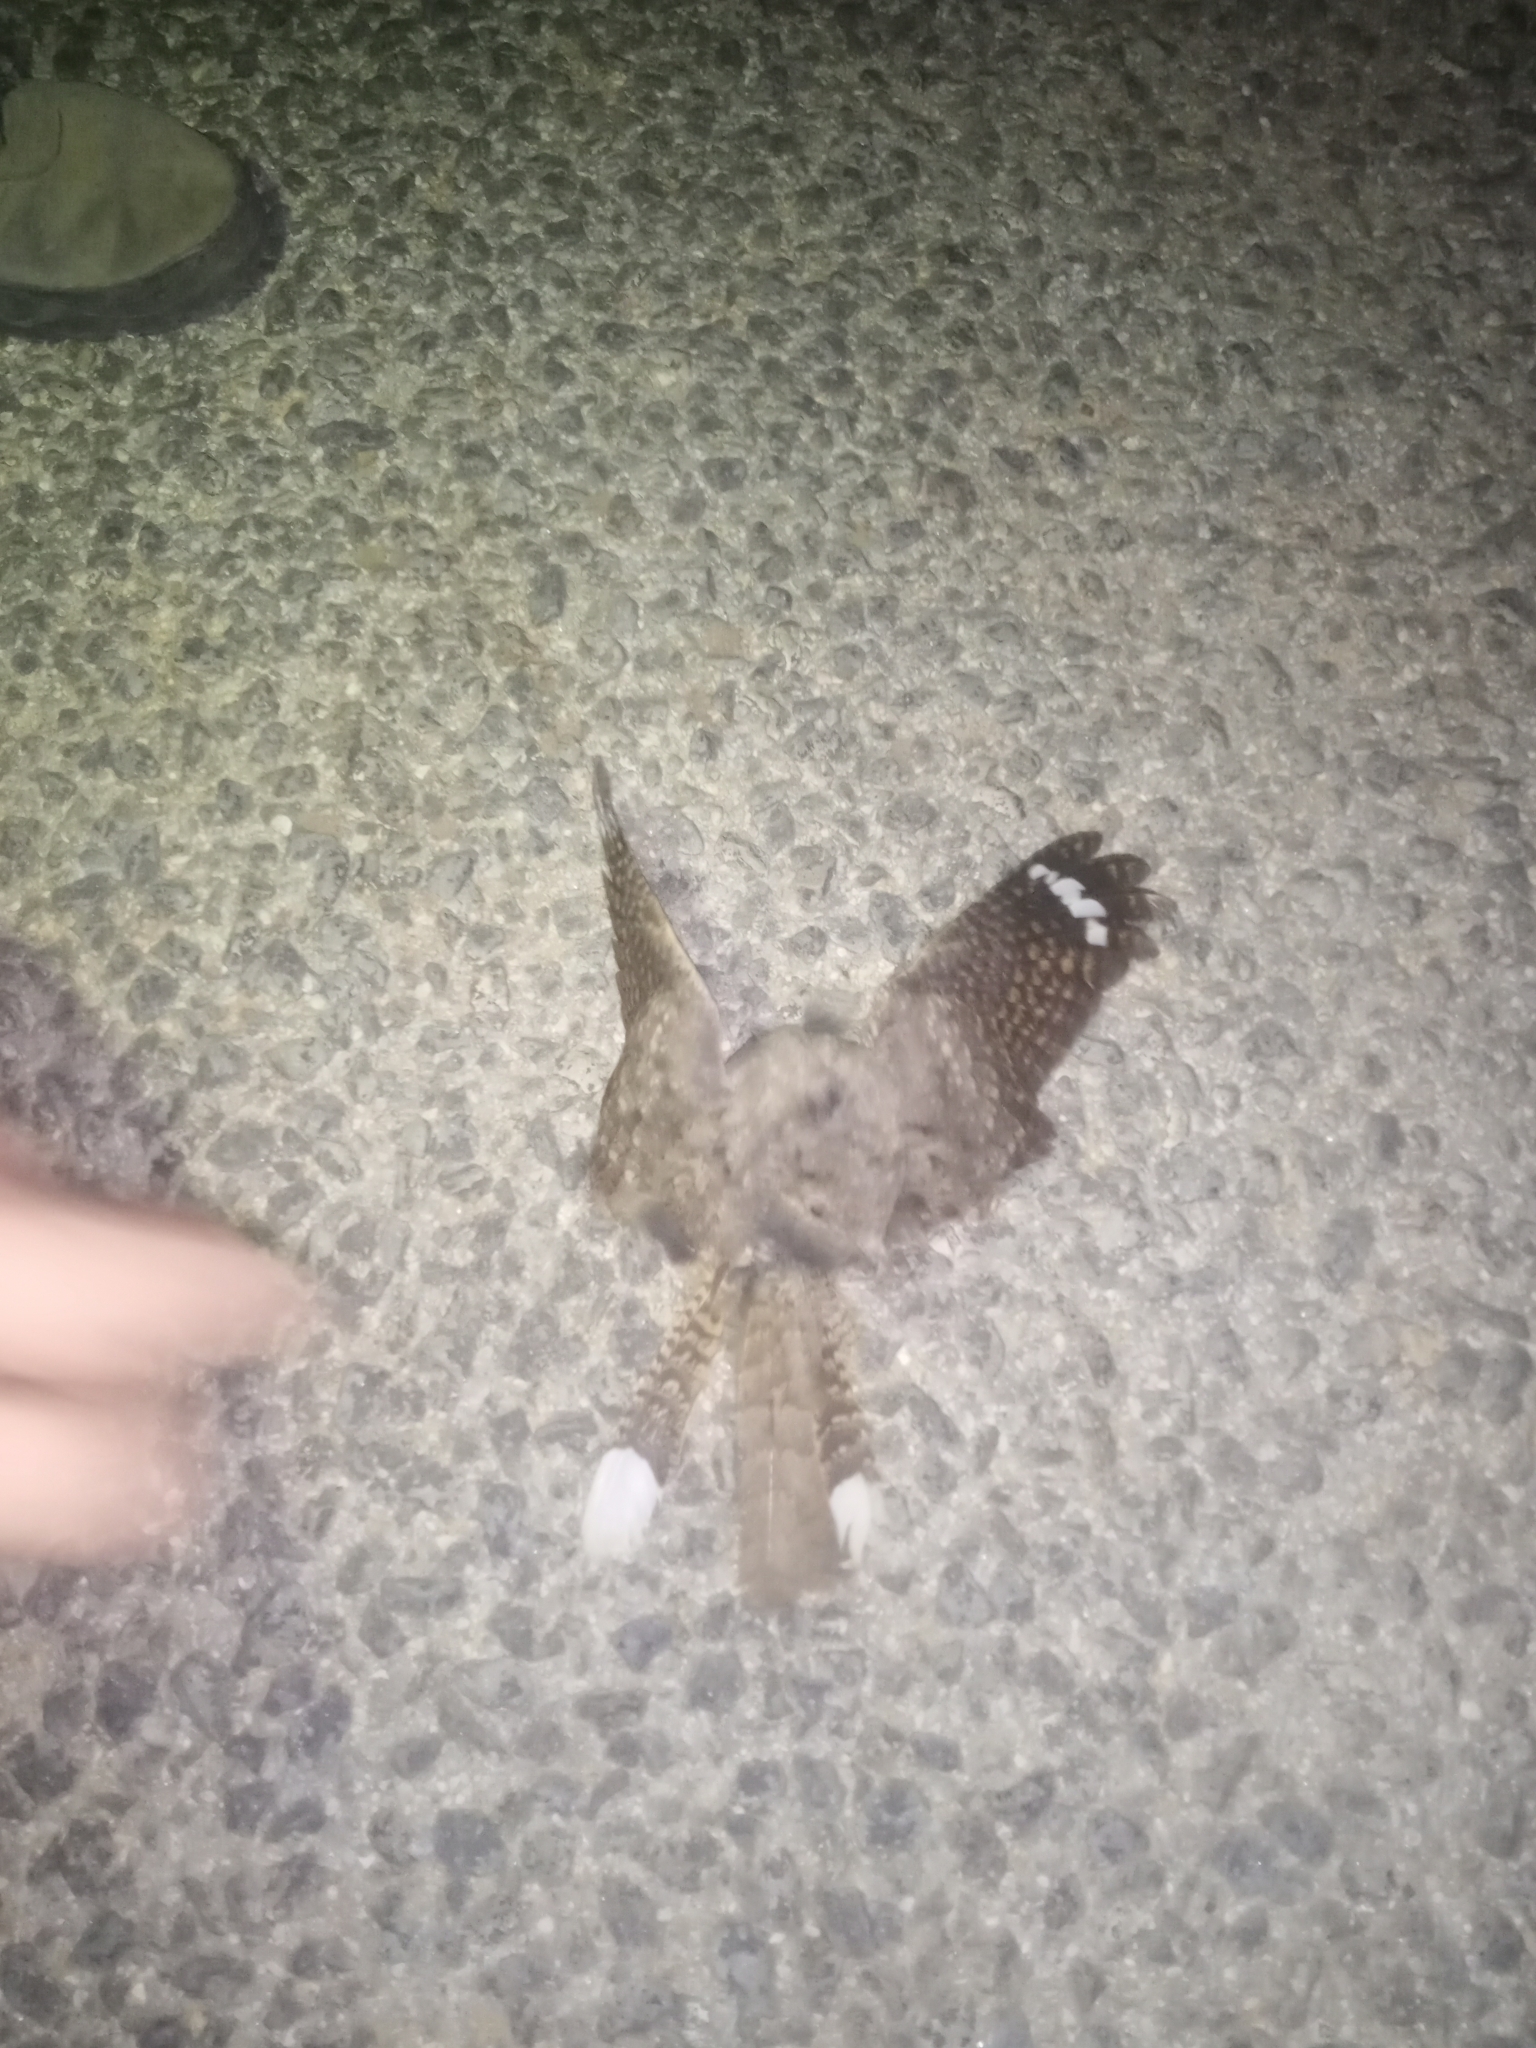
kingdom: Animalia
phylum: Chordata
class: Aves
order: Caprimulgiformes
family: Caprimulgidae
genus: Caprimulgus
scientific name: Caprimulgus europaeus
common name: European nightjar
